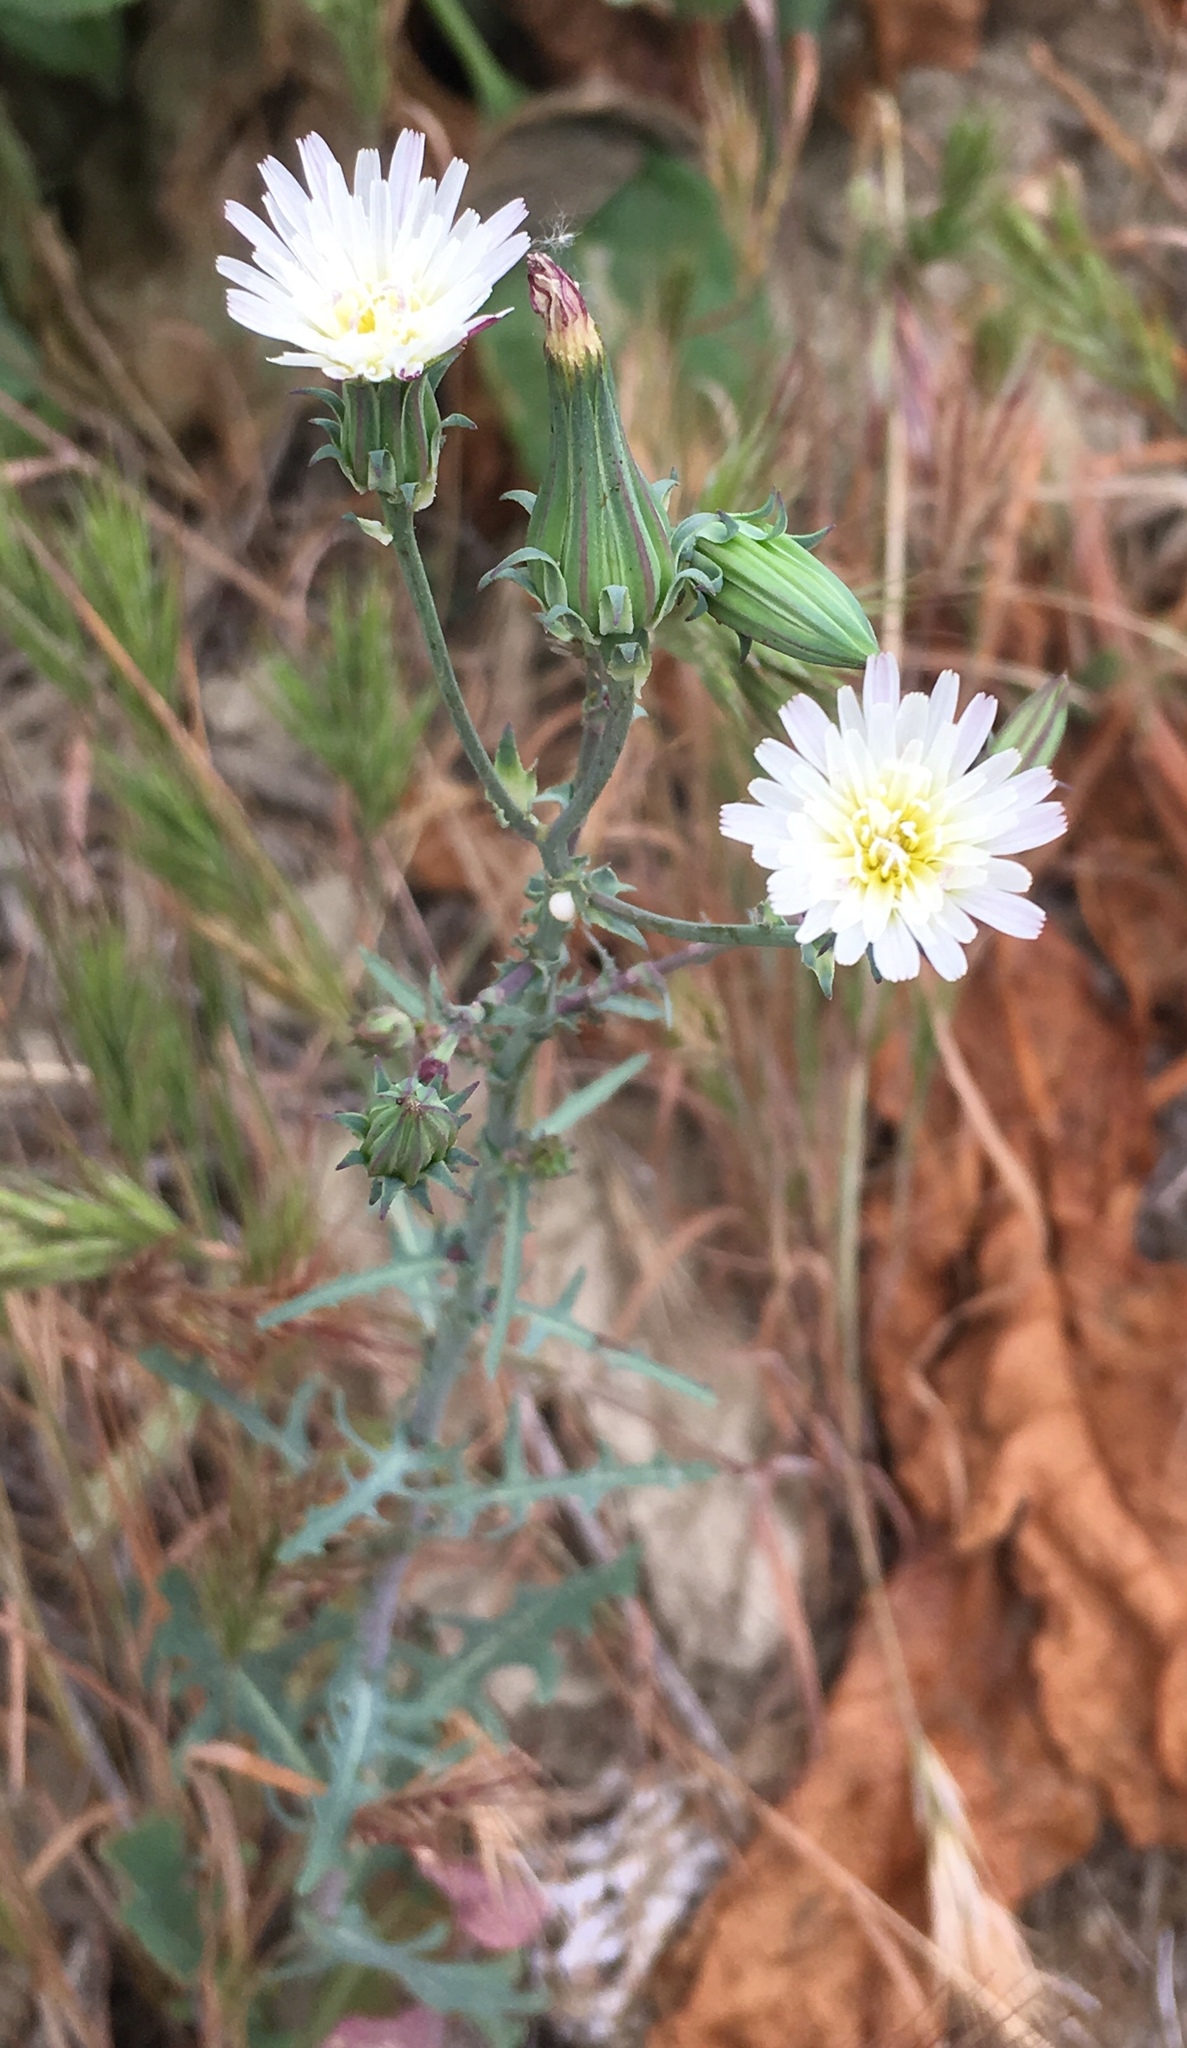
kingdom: Plantae
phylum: Tracheophyta
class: Magnoliopsida
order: Asterales
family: Asteraceae
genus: Rafinesquia
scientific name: Rafinesquia californica
